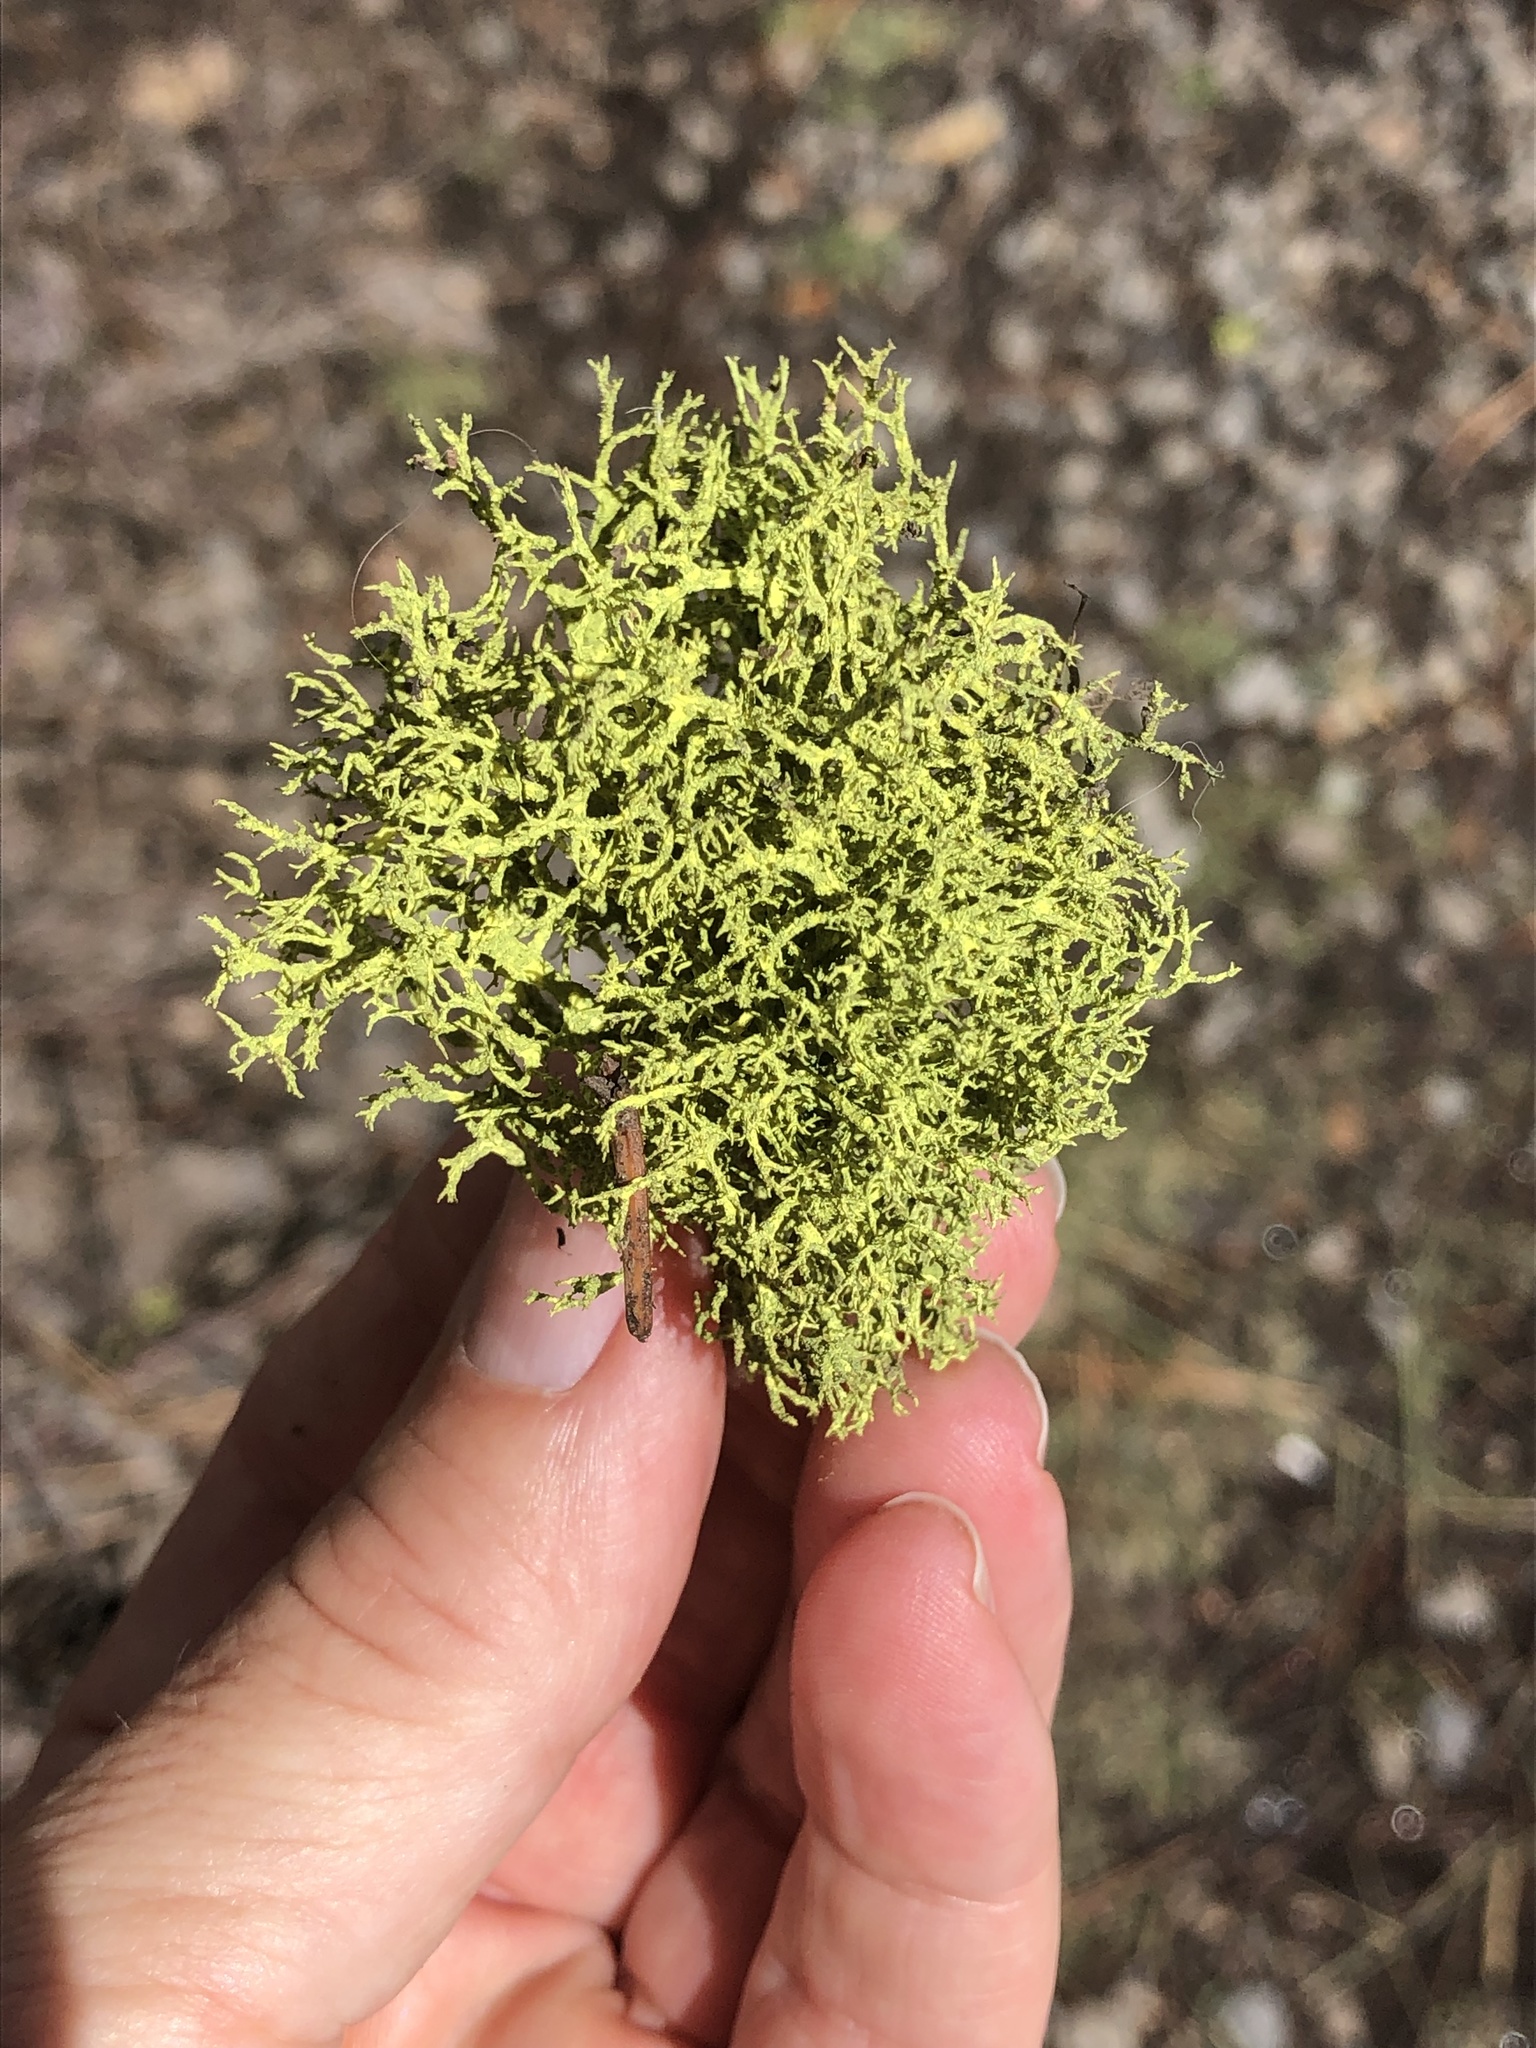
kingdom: Fungi
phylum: Ascomycota
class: Lecanoromycetes
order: Lecanorales
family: Parmeliaceae
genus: Letharia
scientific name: Letharia vulpina
